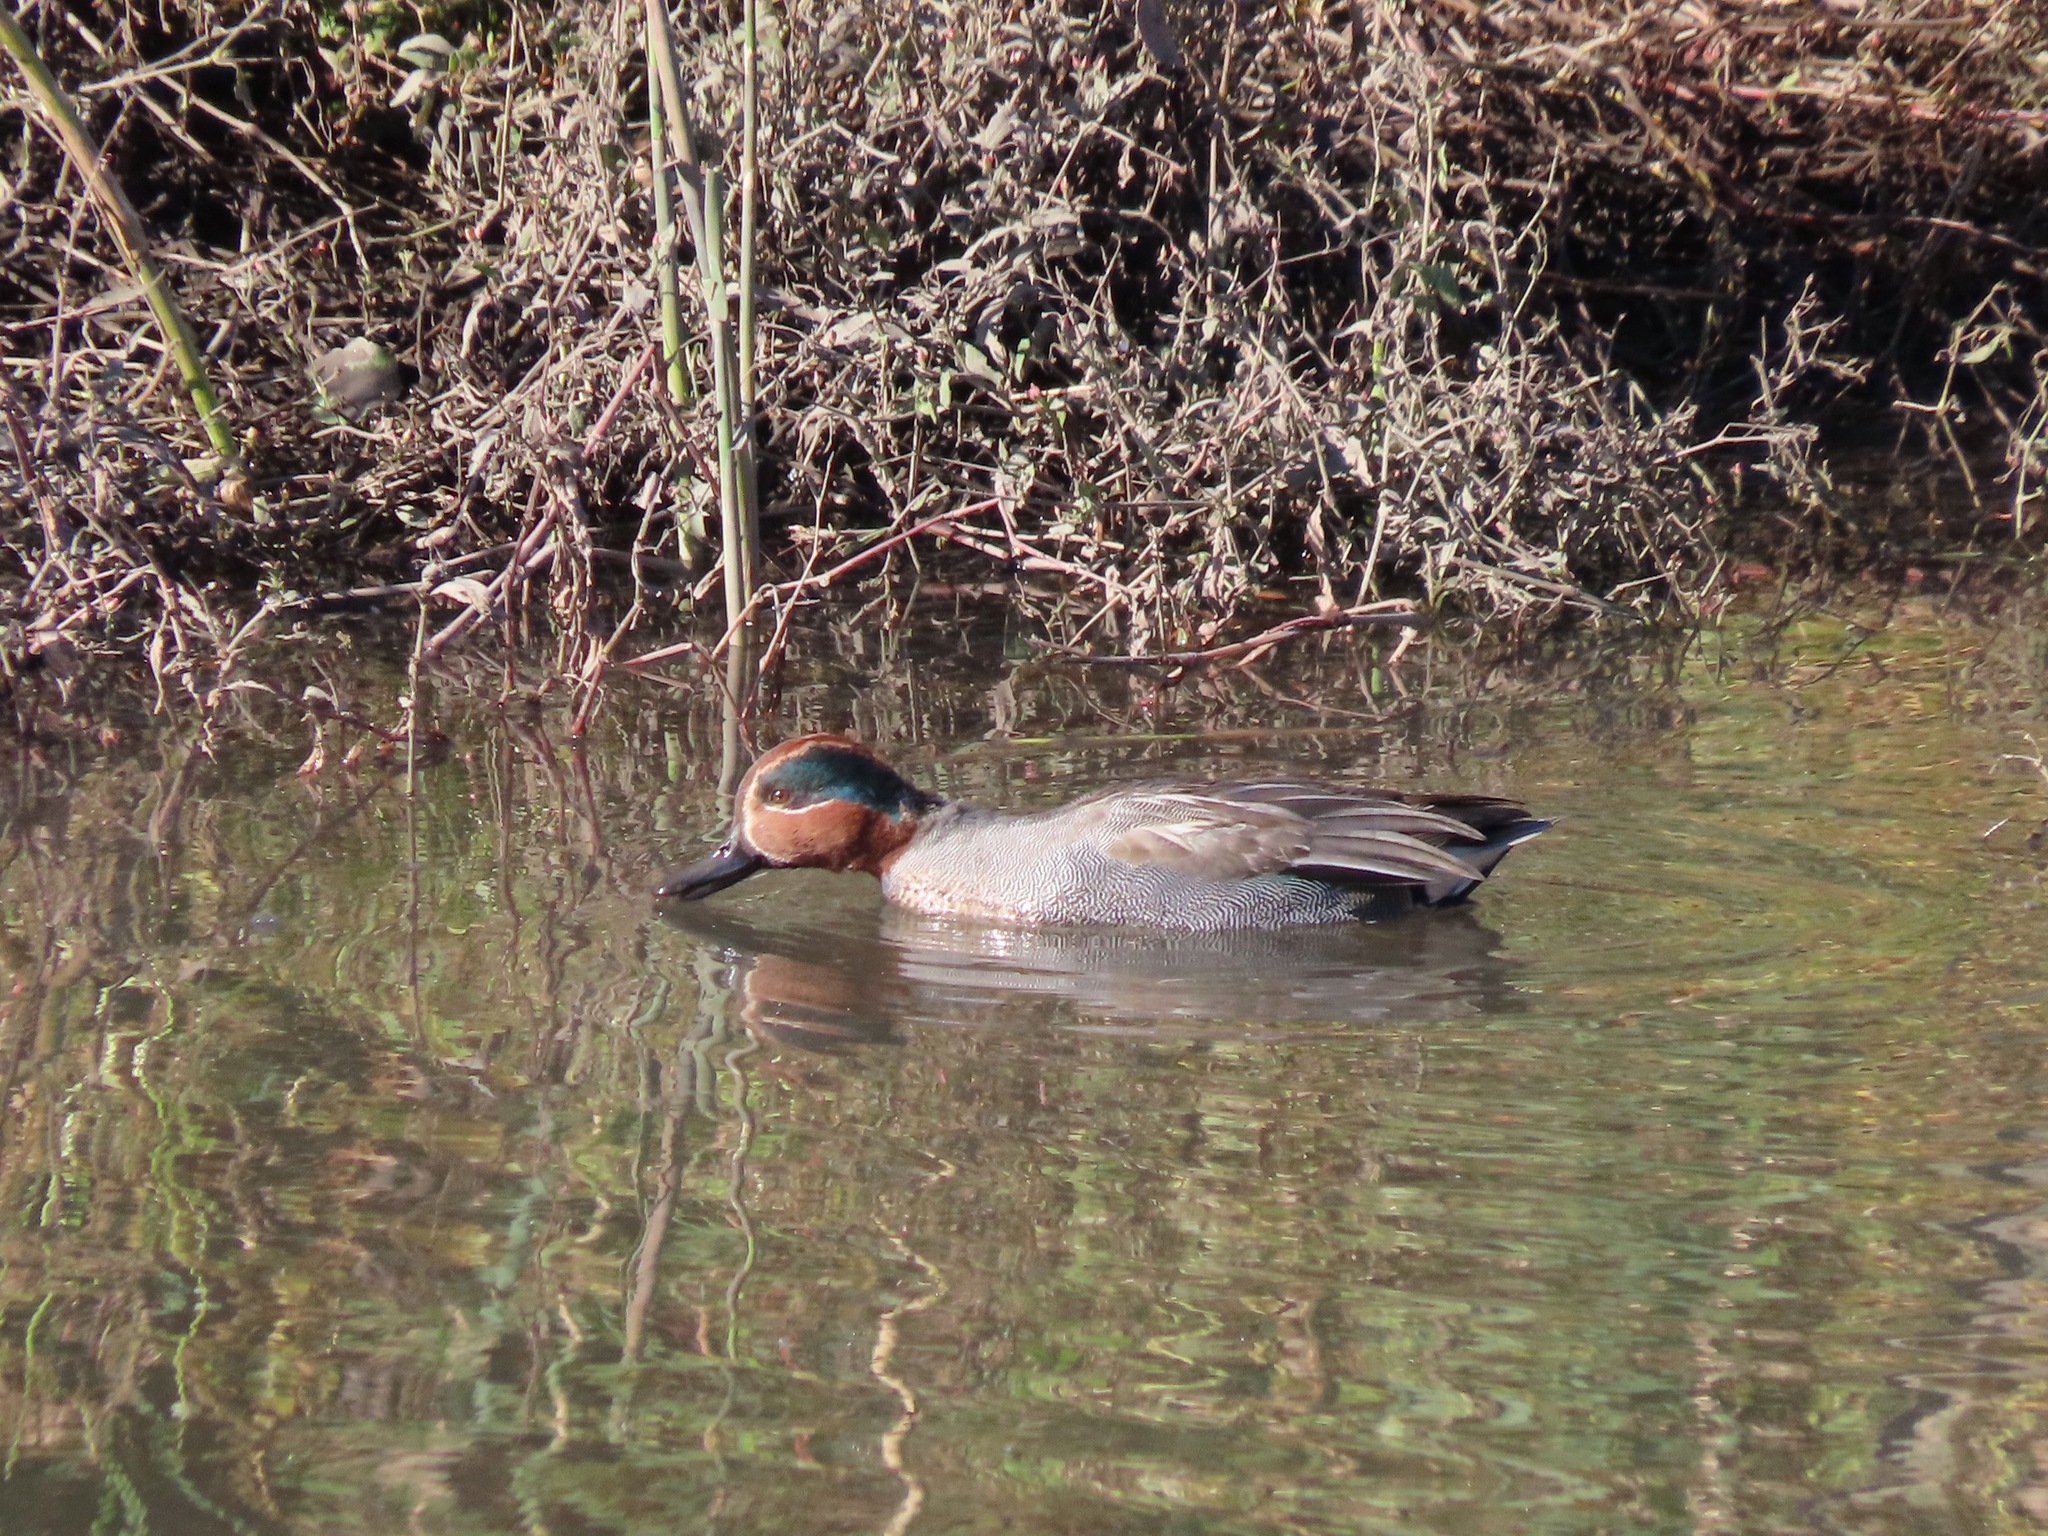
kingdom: Animalia
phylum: Chordata
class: Aves
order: Anseriformes
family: Anatidae
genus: Anas
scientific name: Anas crecca
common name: Eurasian teal
